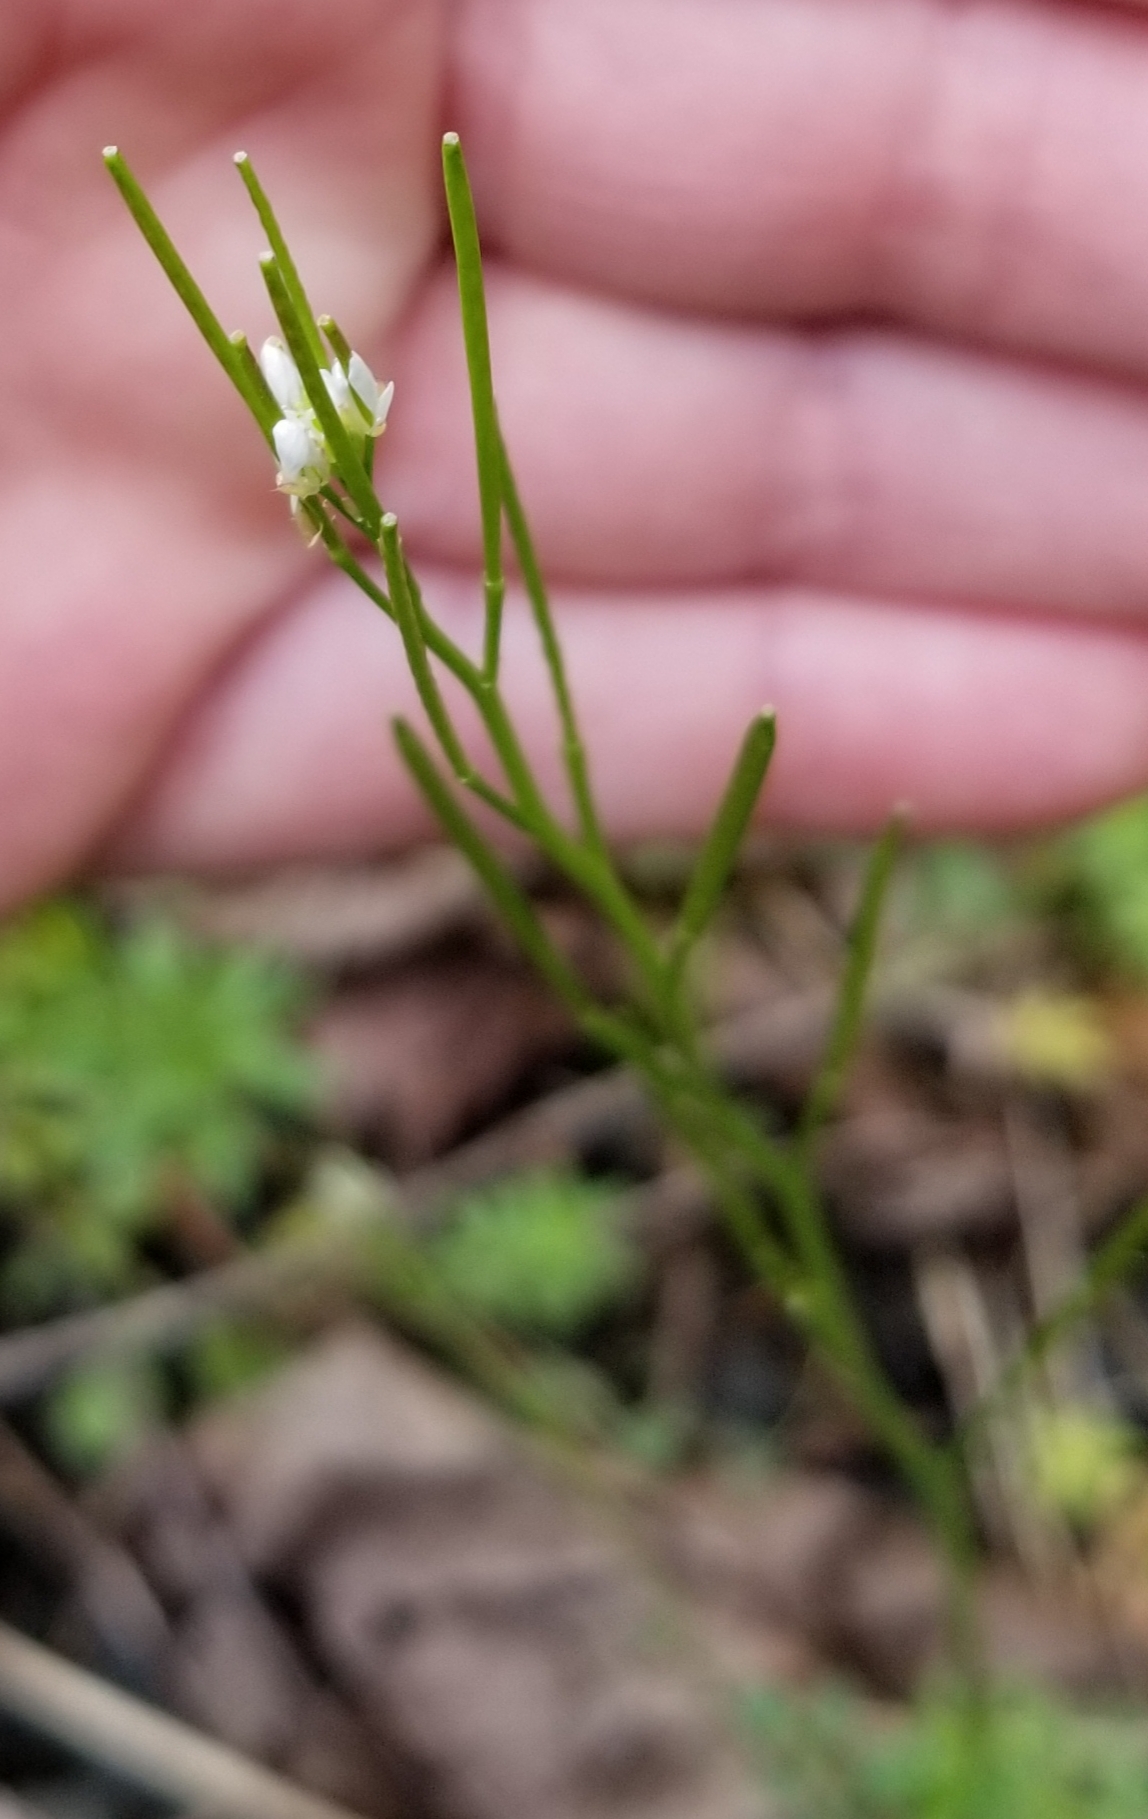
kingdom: Plantae
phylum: Tracheophyta
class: Magnoliopsida
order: Brassicales
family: Brassicaceae
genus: Cardamine
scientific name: Cardamine hirsuta
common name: Hairy bittercress
